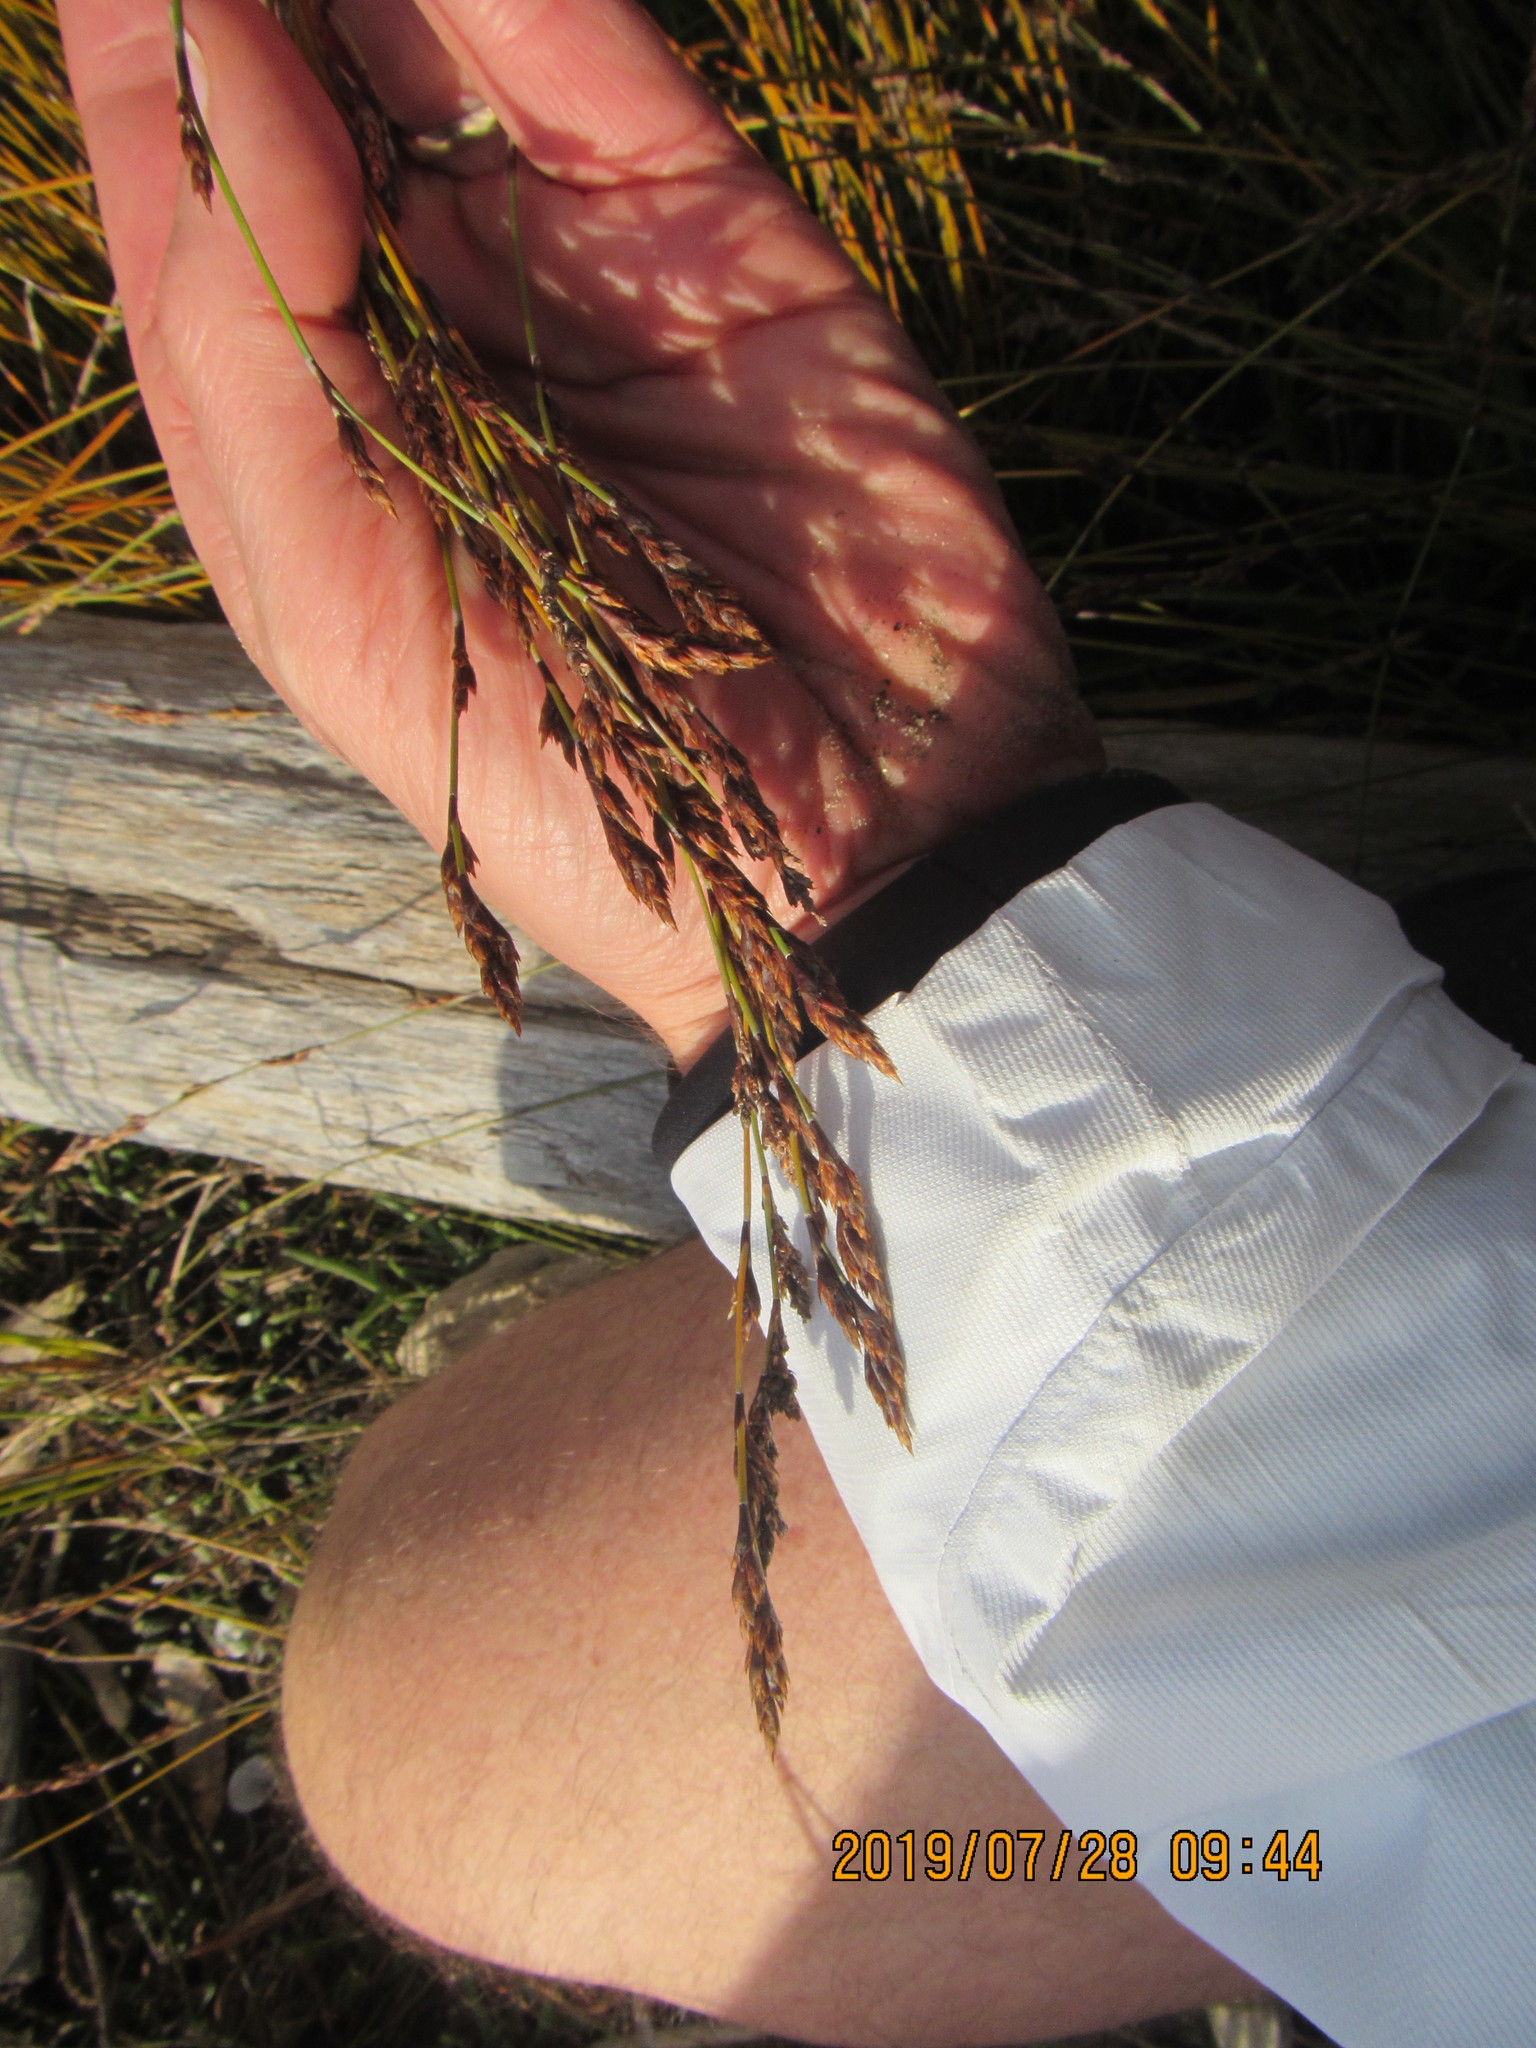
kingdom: Plantae
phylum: Tracheophyta
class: Liliopsida
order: Poales
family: Restionaceae
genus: Apodasmia
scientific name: Apodasmia similis
